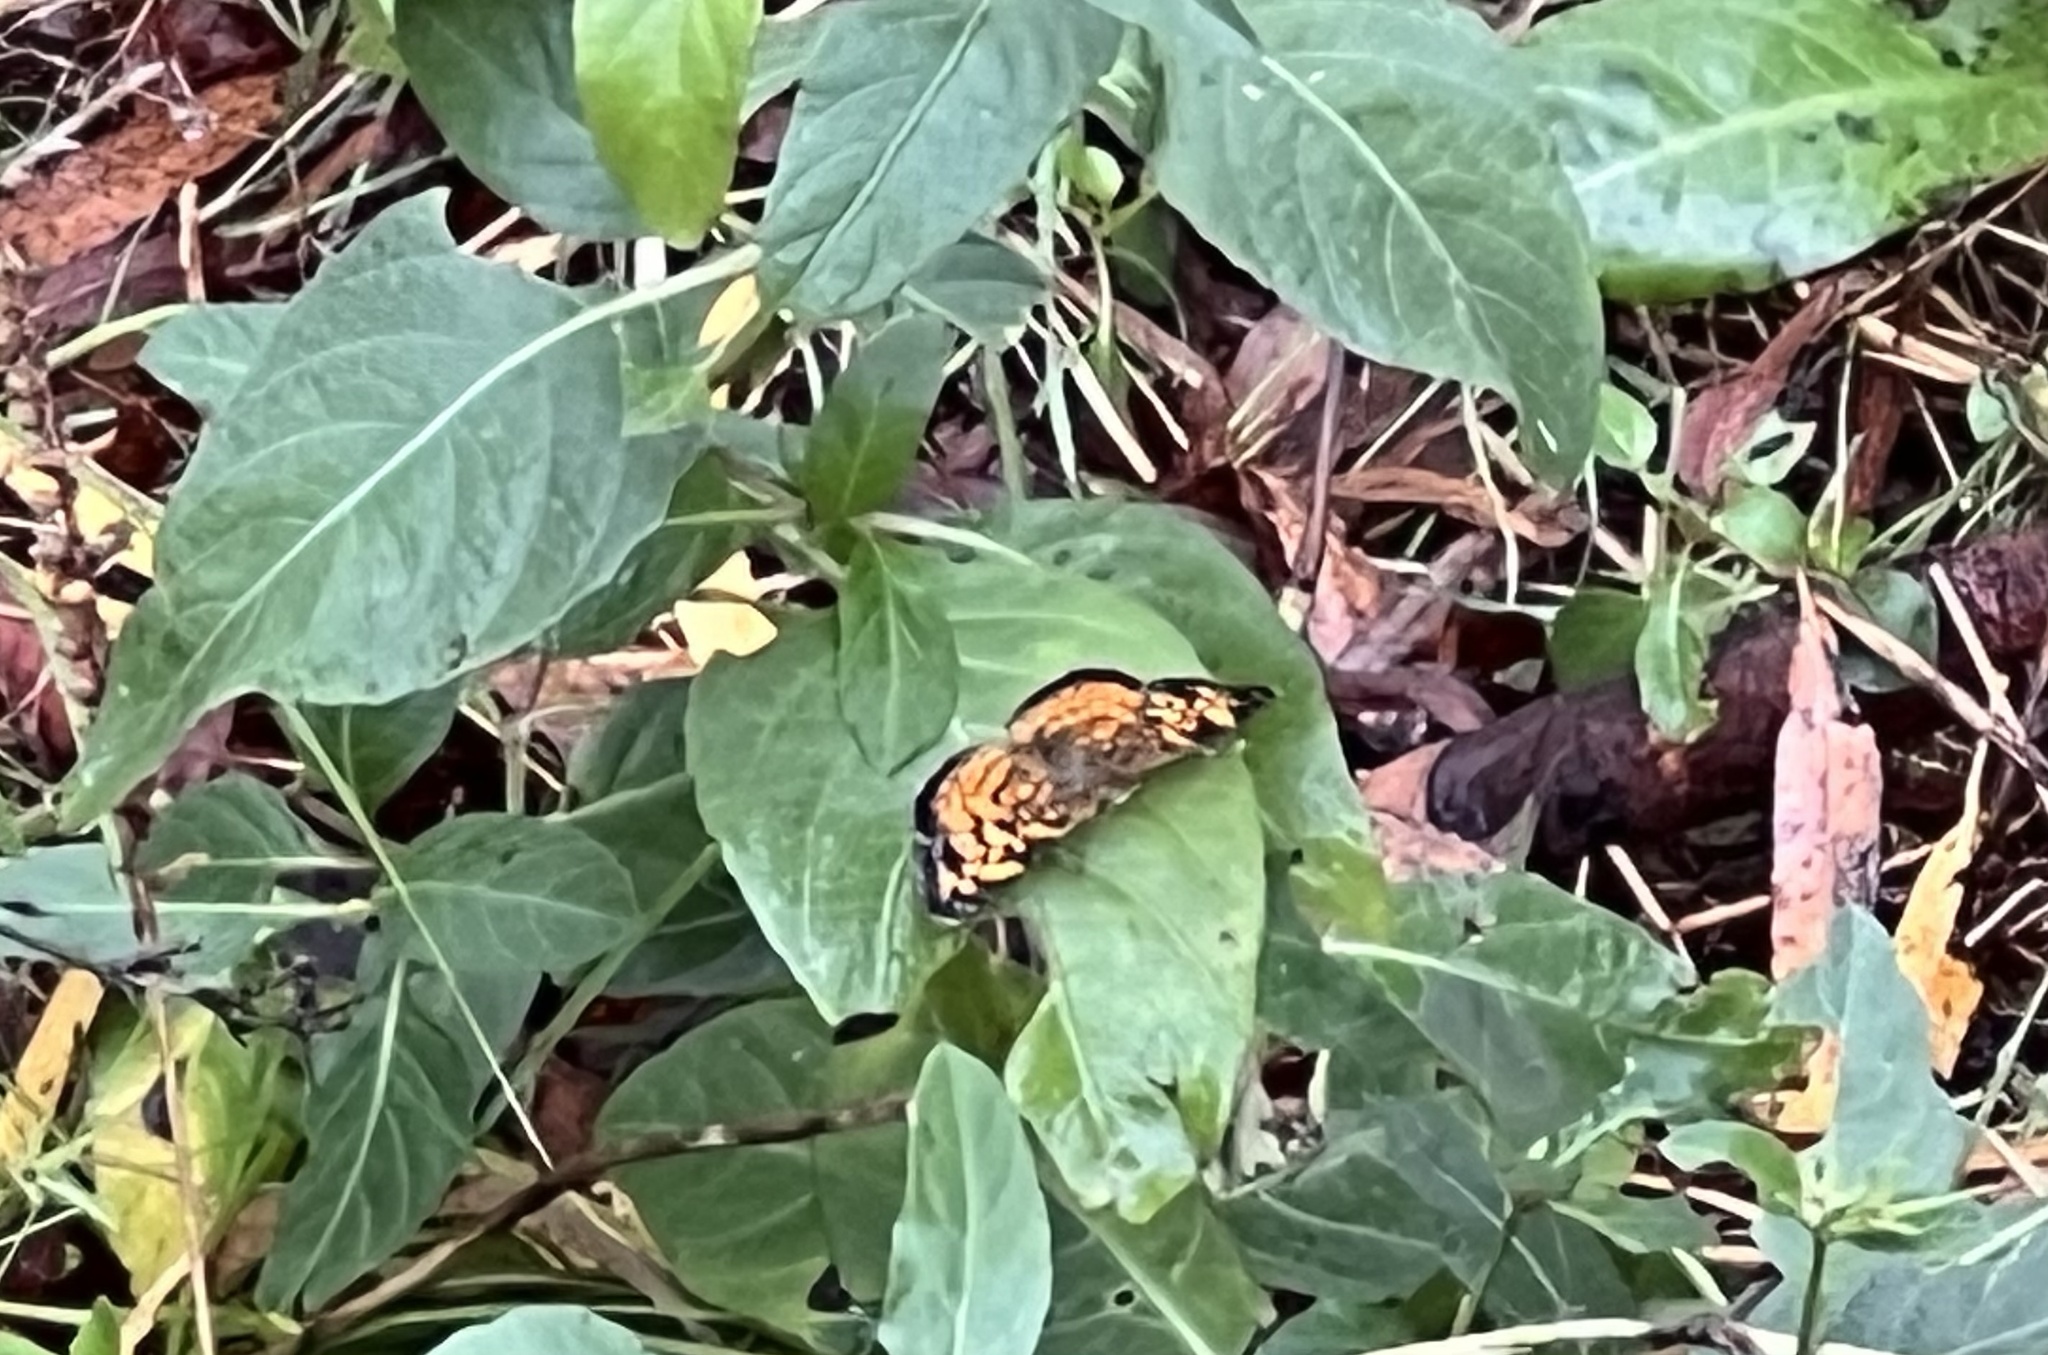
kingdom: Animalia
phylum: Arthropoda
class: Insecta
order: Lepidoptera
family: Nymphalidae
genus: Phyciodes
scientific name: Phyciodes tharos
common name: Pearl crescent
